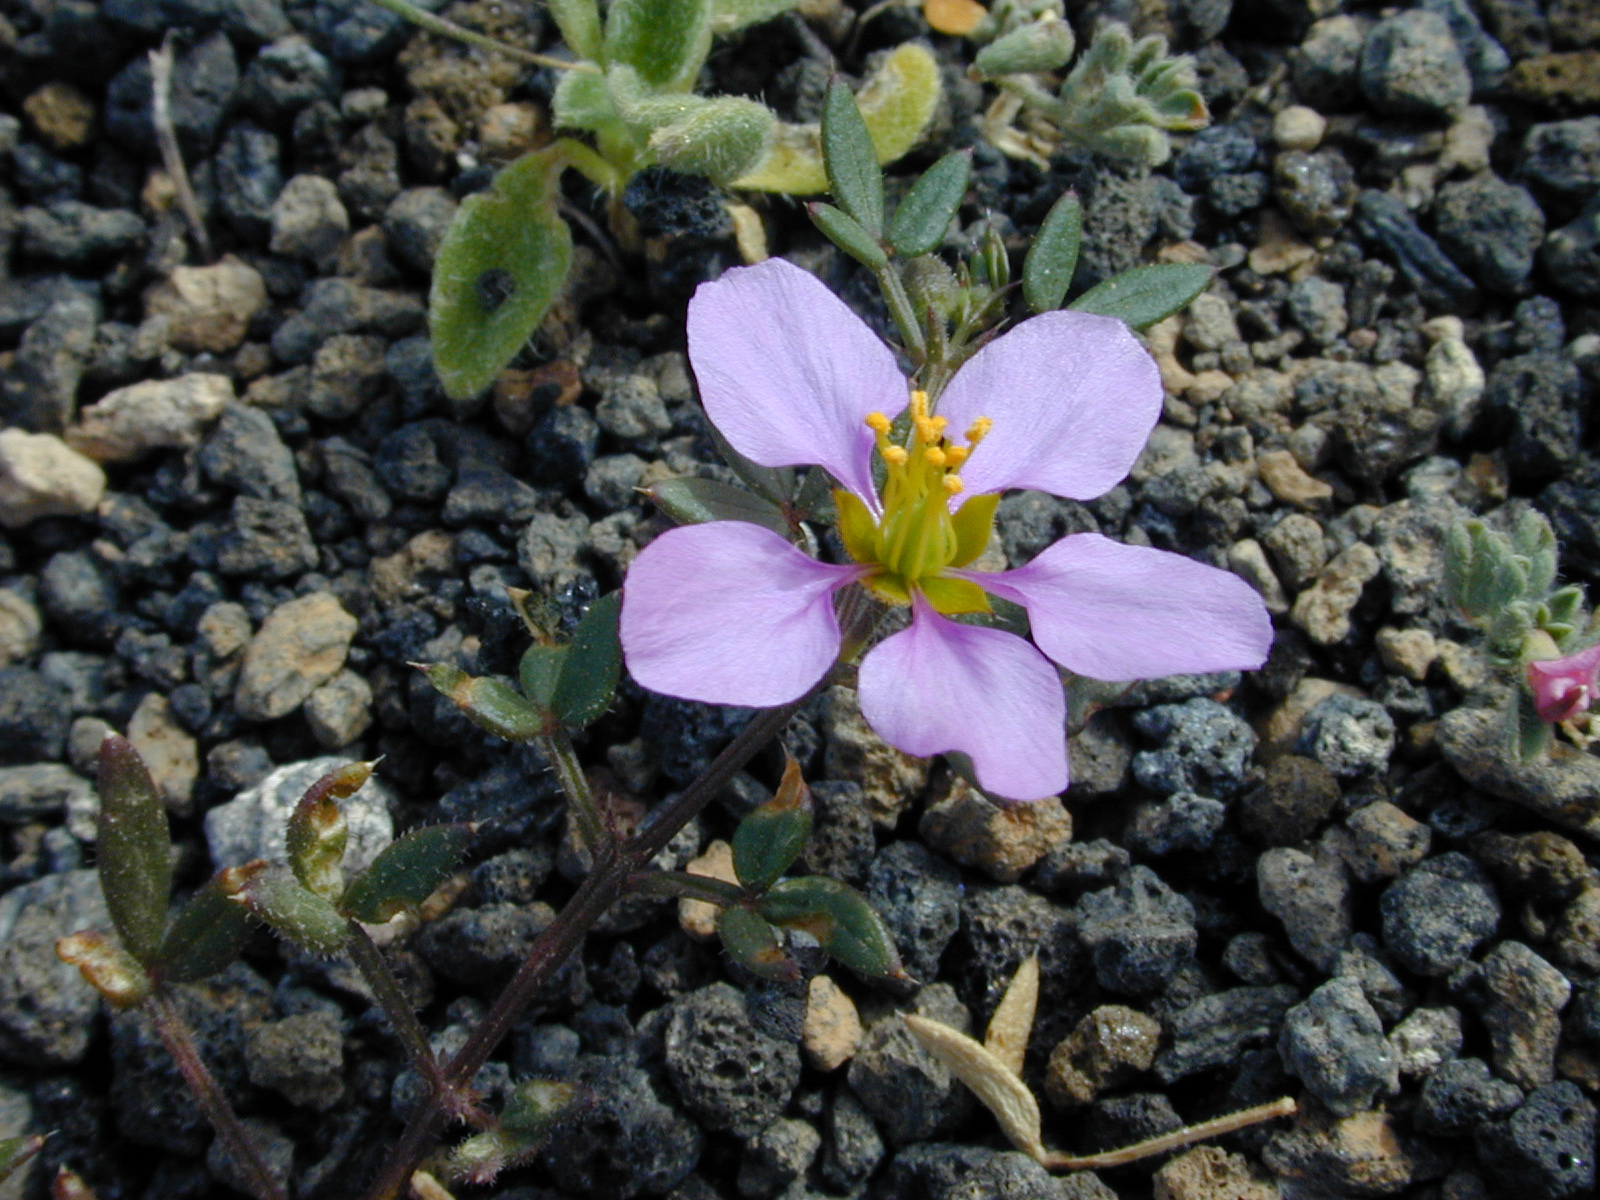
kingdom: Plantae
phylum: Tracheophyta
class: Magnoliopsida
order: Zygophyllales
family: Zygophyllaceae
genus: Fagonia
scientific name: Fagonia cretica
